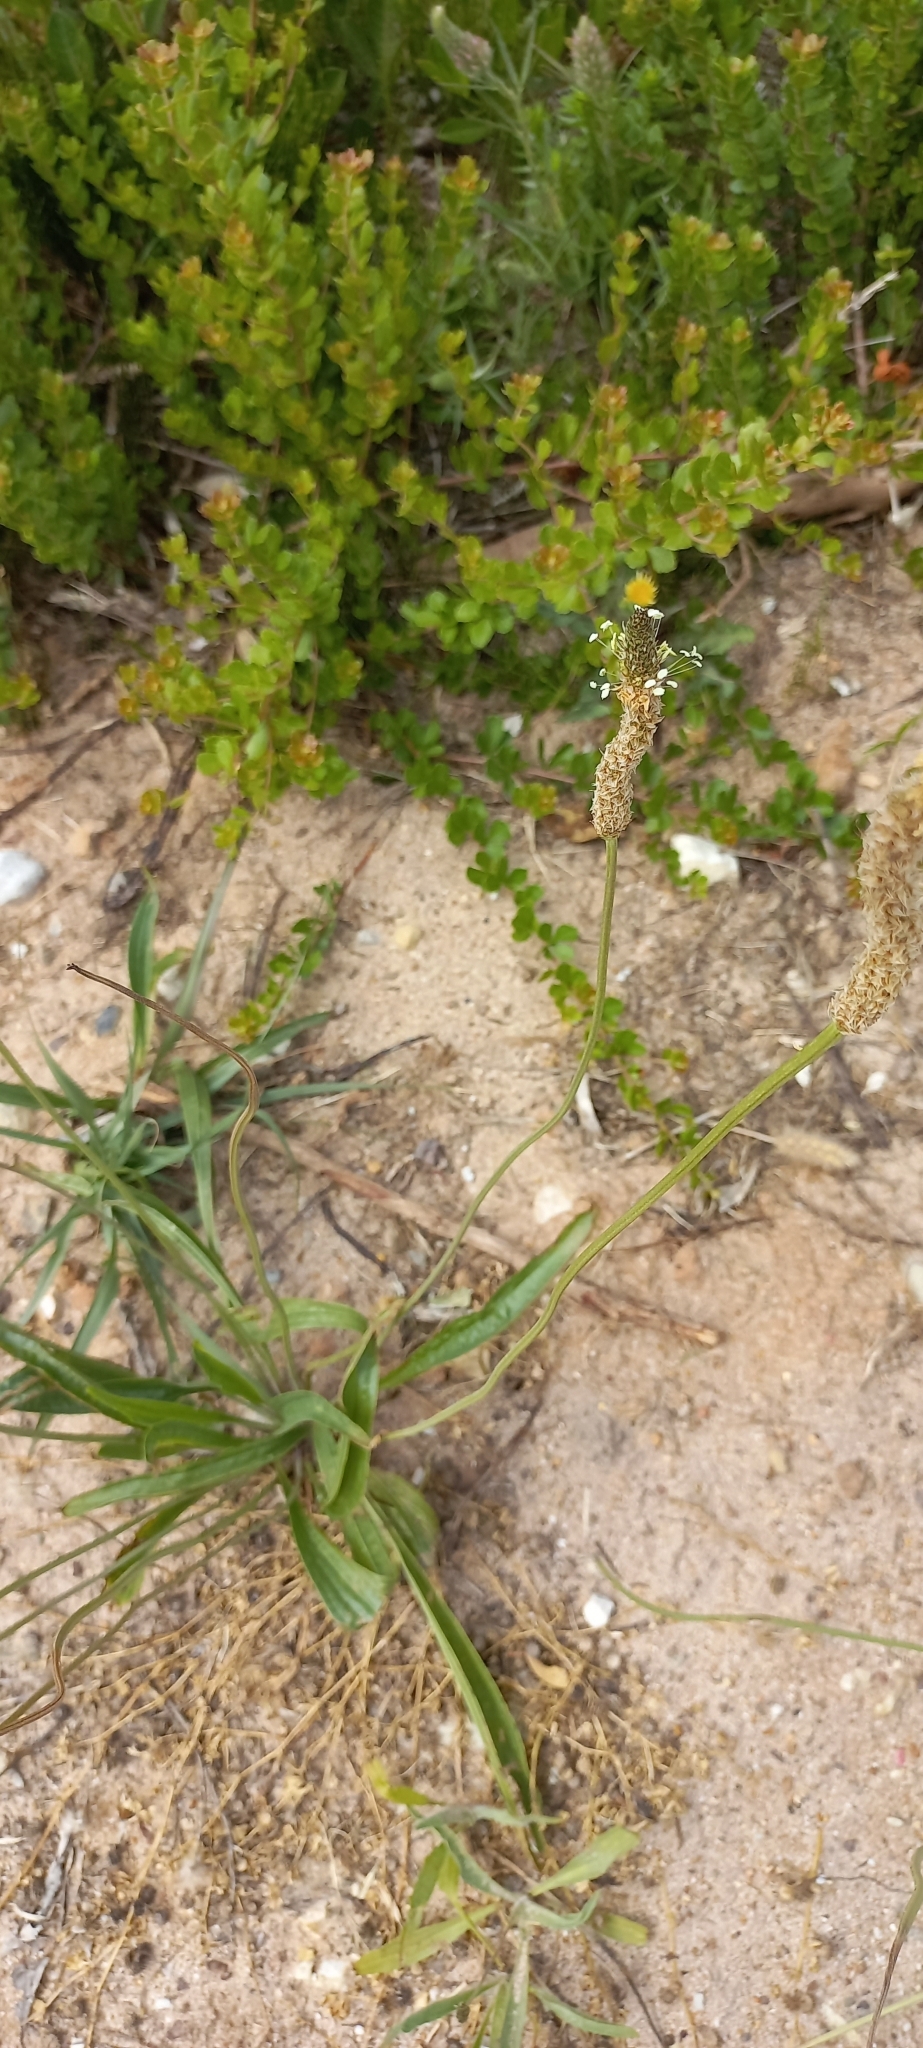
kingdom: Plantae
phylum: Tracheophyta
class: Magnoliopsida
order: Lamiales
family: Plantaginaceae
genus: Plantago
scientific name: Plantago lanceolata
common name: Ribwort plantain
